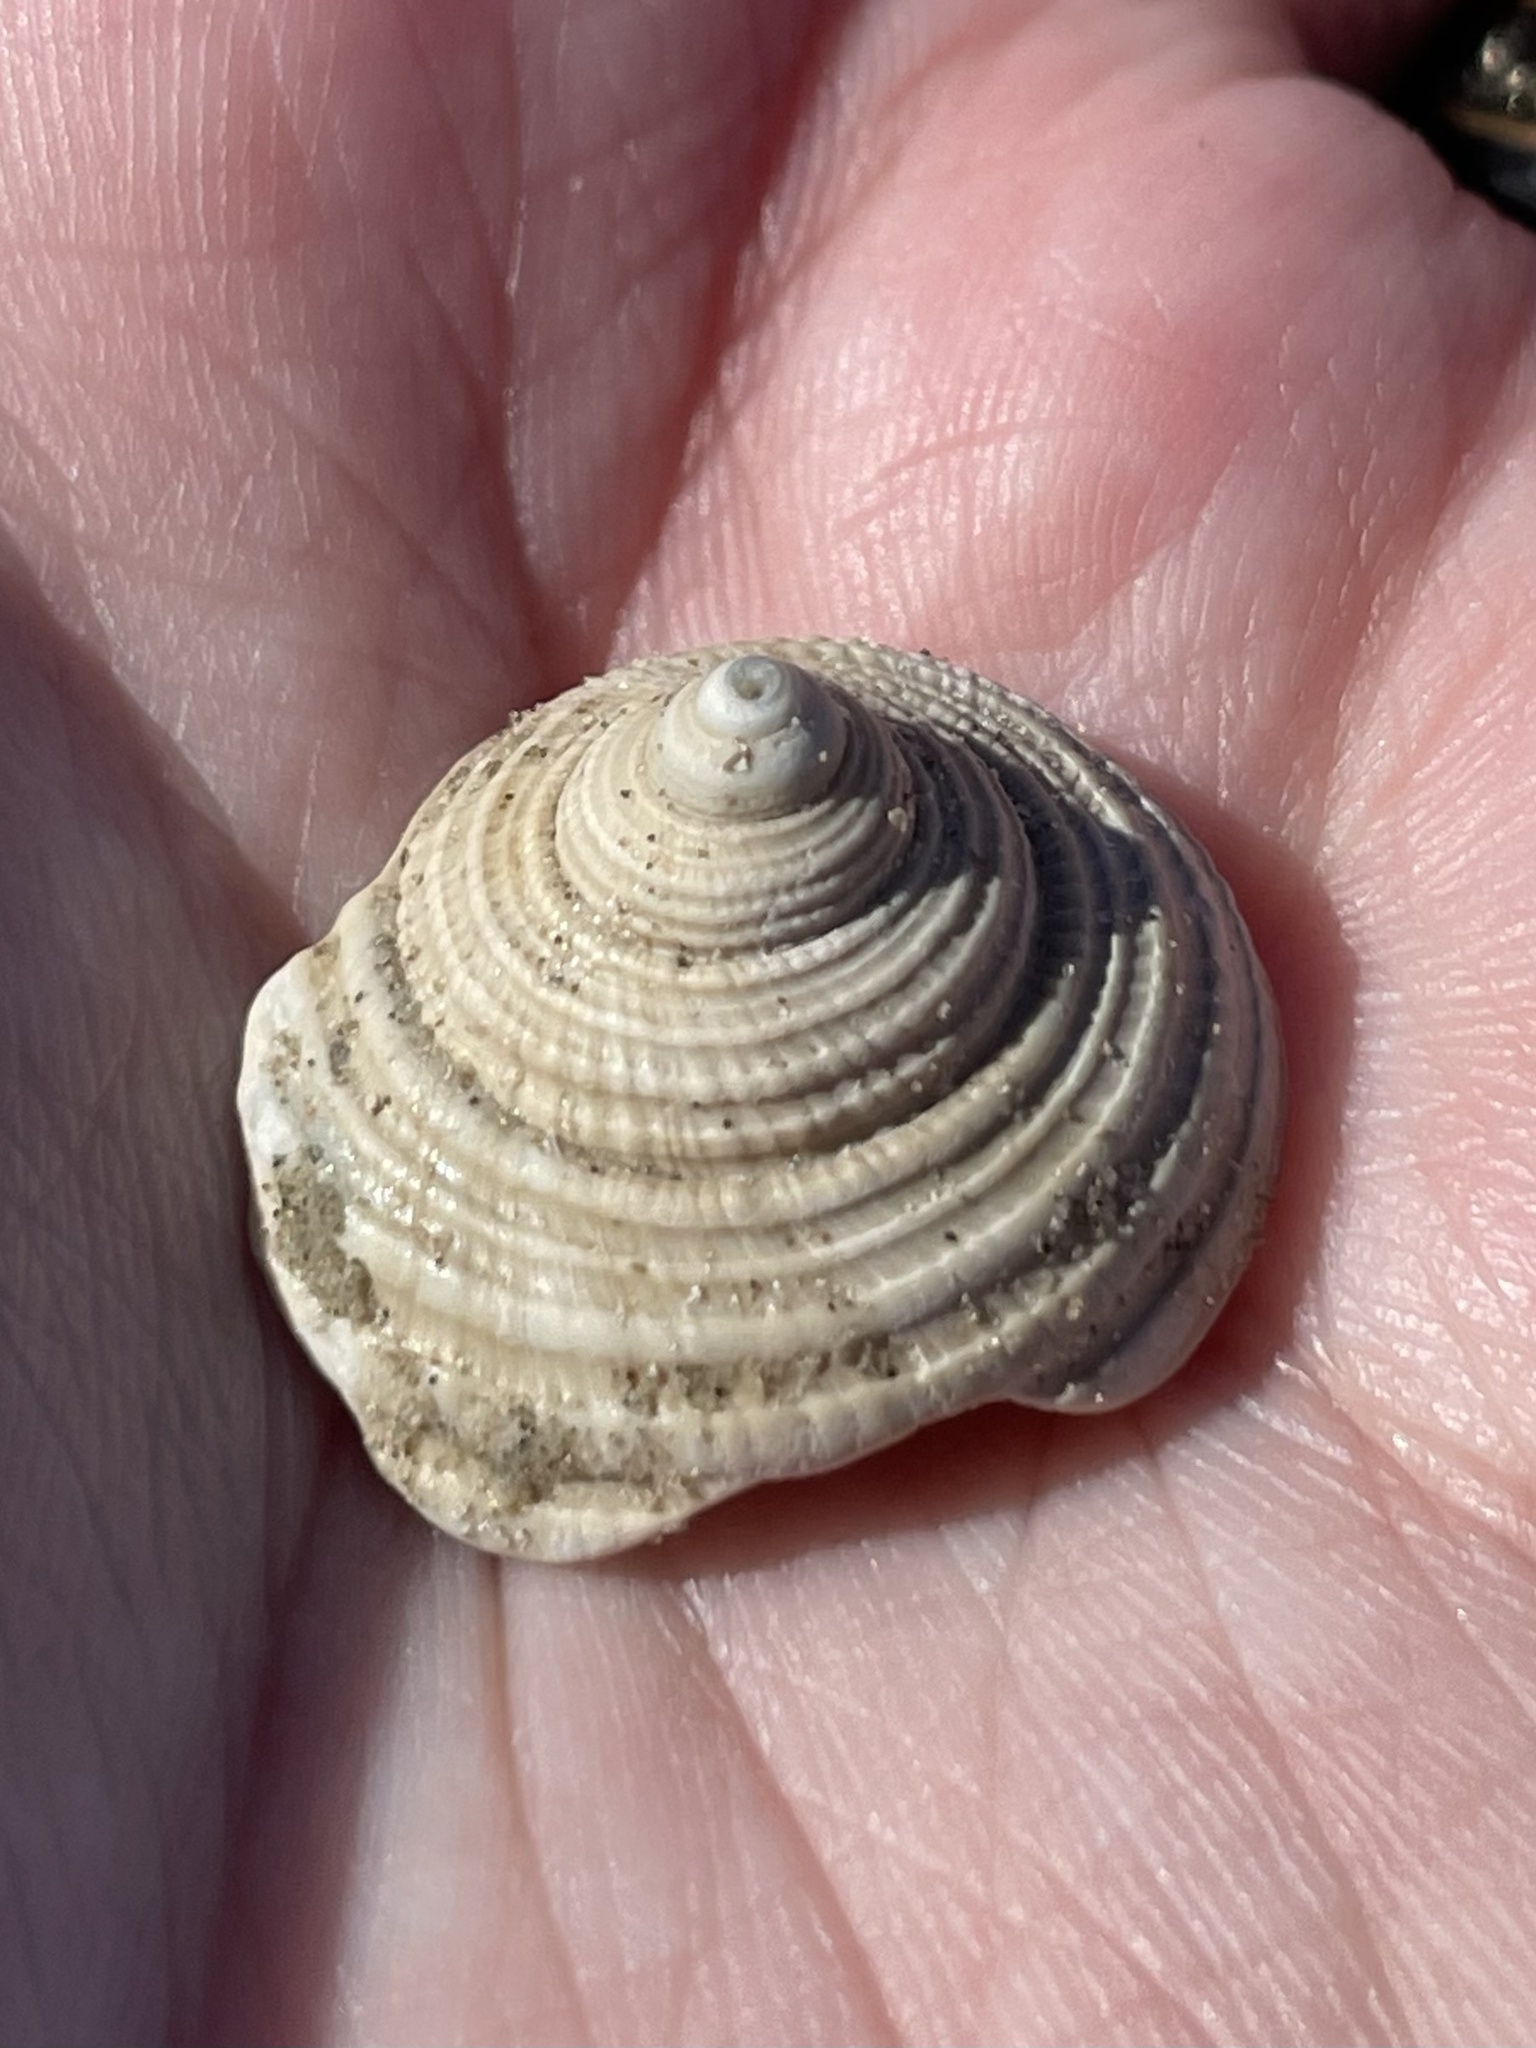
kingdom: Animalia
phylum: Mollusca
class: Gastropoda
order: Littorinimorpha
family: Cassidae
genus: Semicassis
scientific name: Semicassis granulata
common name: Scotch bonnet
